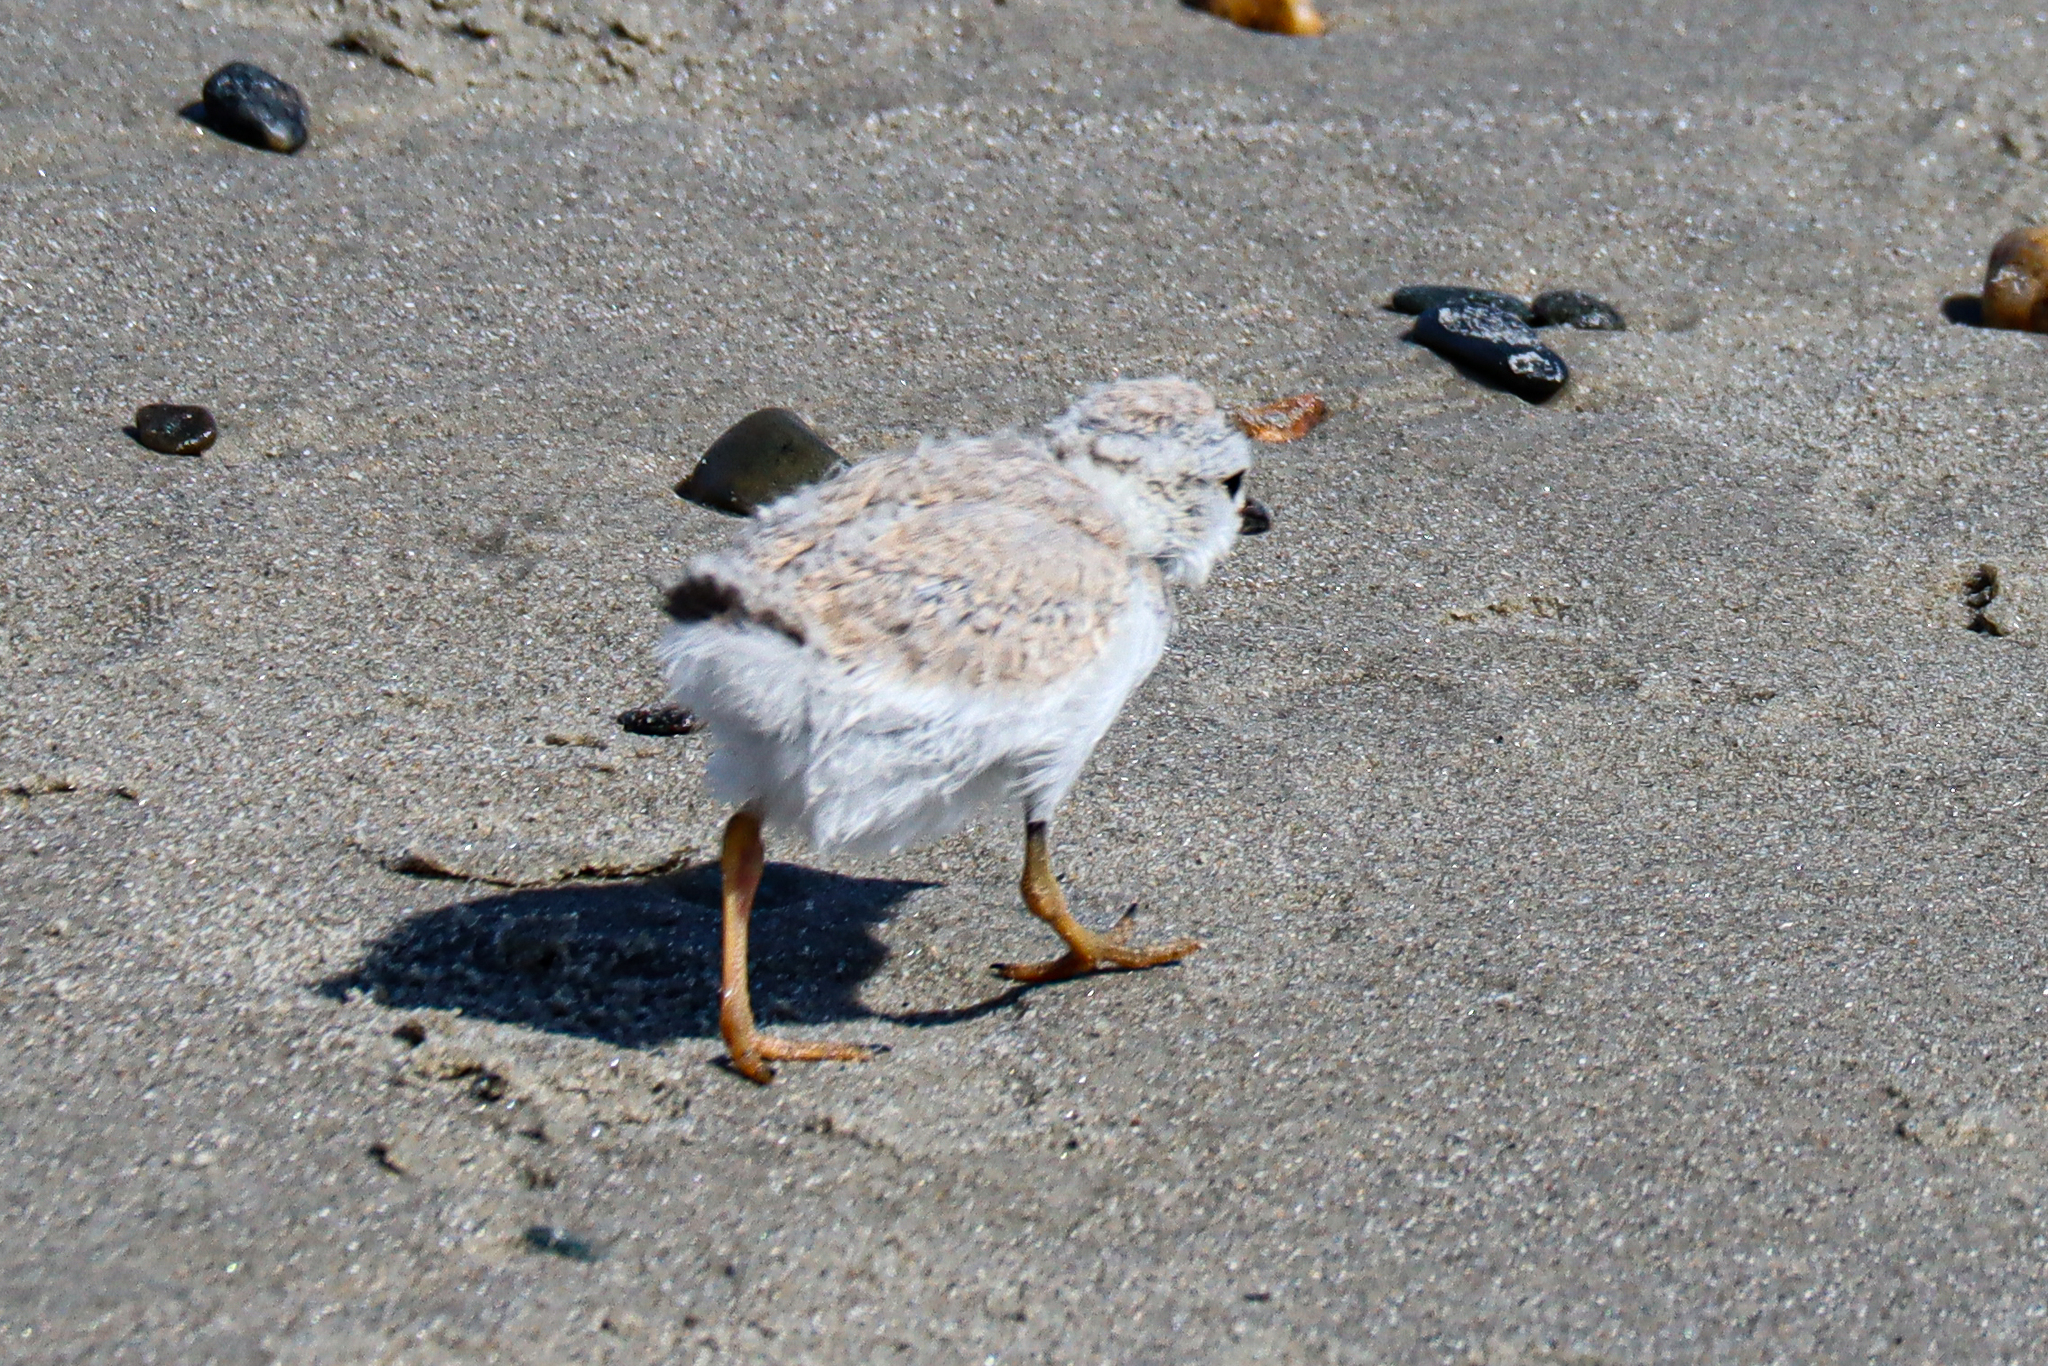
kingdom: Animalia
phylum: Chordata
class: Aves
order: Charadriiformes
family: Charadriidae
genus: Charadrius
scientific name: Charadrius melodus
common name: Piping plover
